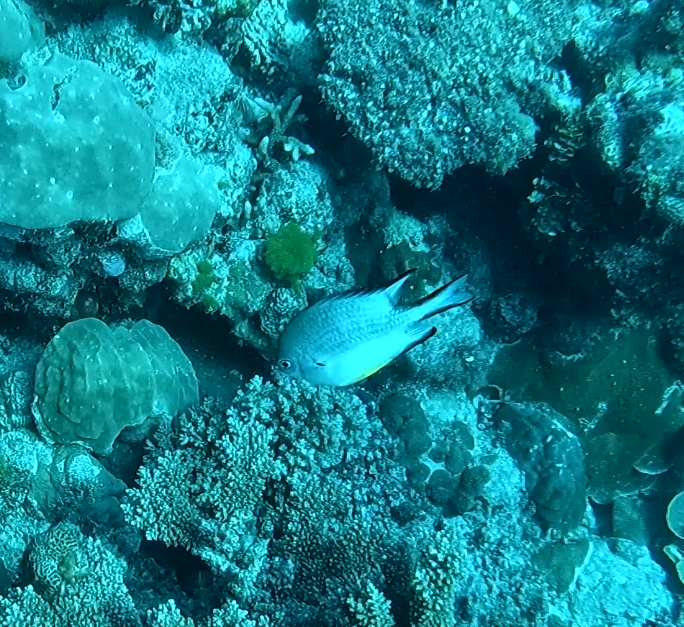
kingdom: Animalia
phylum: Chordata
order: Perciformes
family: Pomacentridae
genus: Amblyglyphidodon
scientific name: Amblyglyphidodon leucogaster
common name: White-belly damsel
